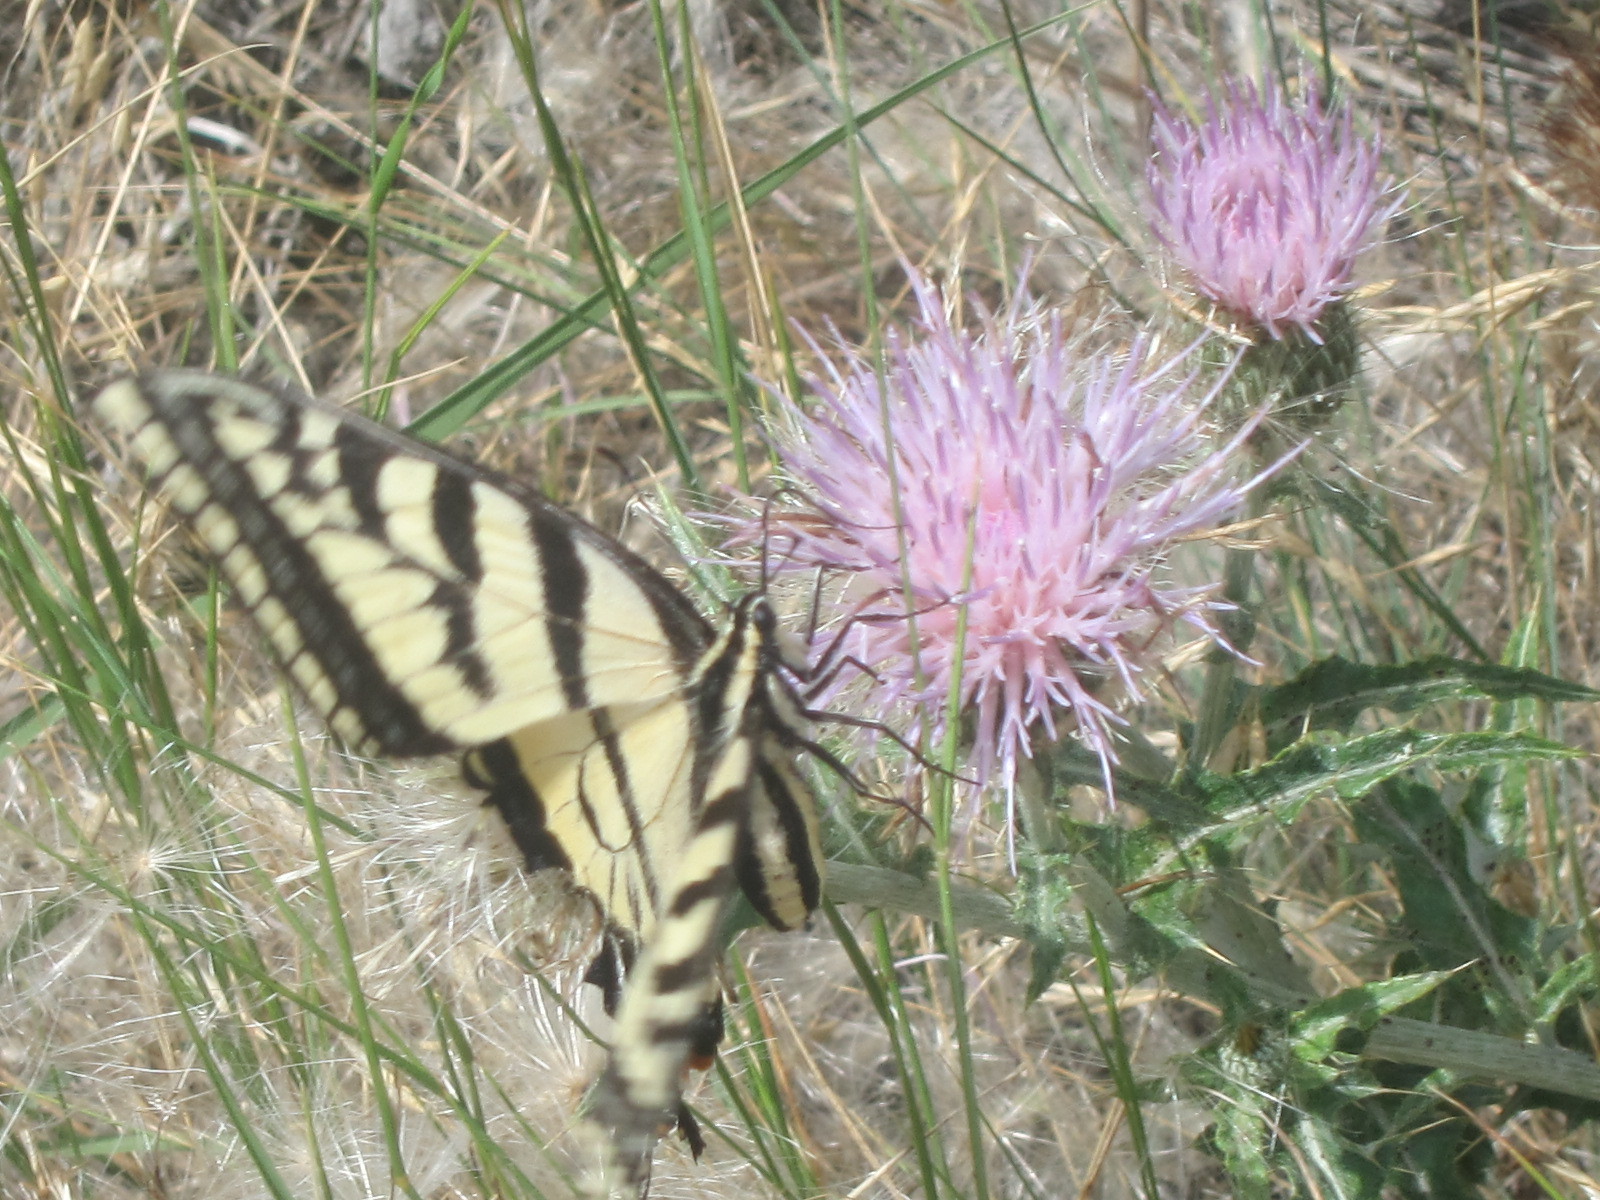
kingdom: Animalia
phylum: Arthropoda
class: Insecta
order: Lepidoptera
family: Papilionidae
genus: Papilio
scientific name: Papilio rutulus
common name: Western tiger swallowtail
